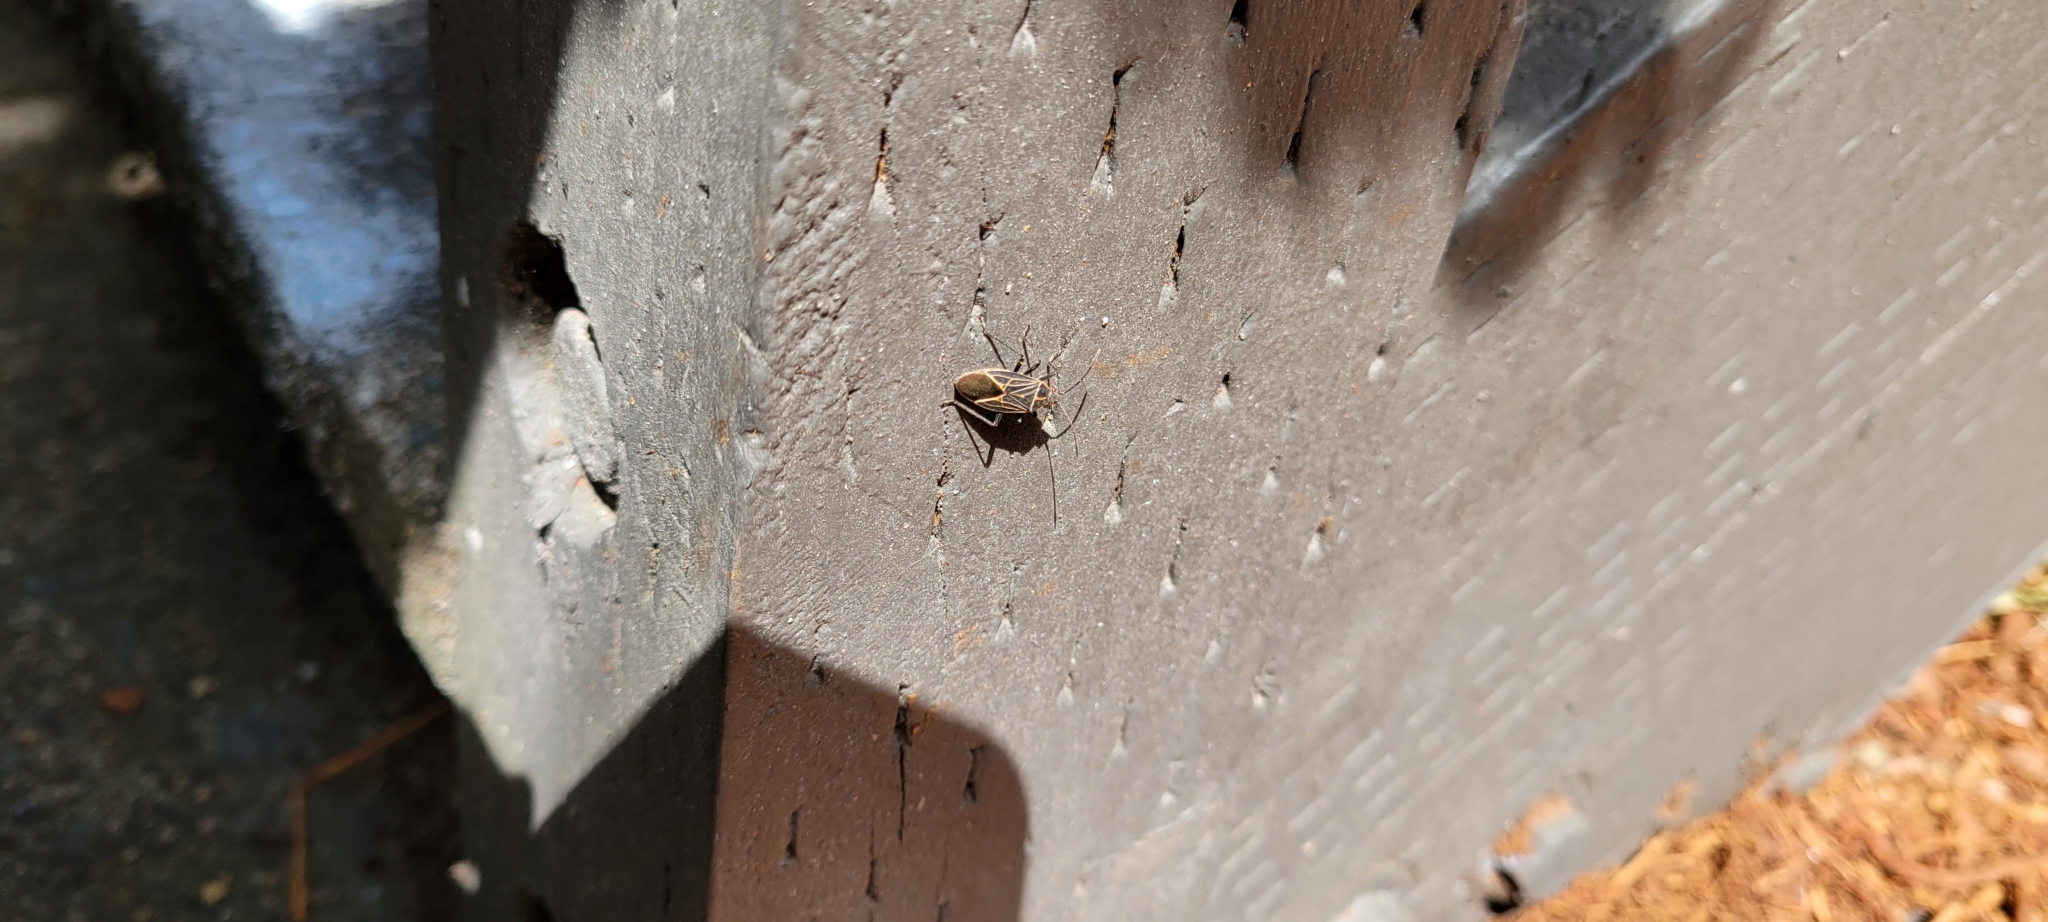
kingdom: Animalia
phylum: Arthropoda
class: Insecta
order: Hemiptera
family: Rhopalidae
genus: Boisea
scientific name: Boisea rubrolineata
